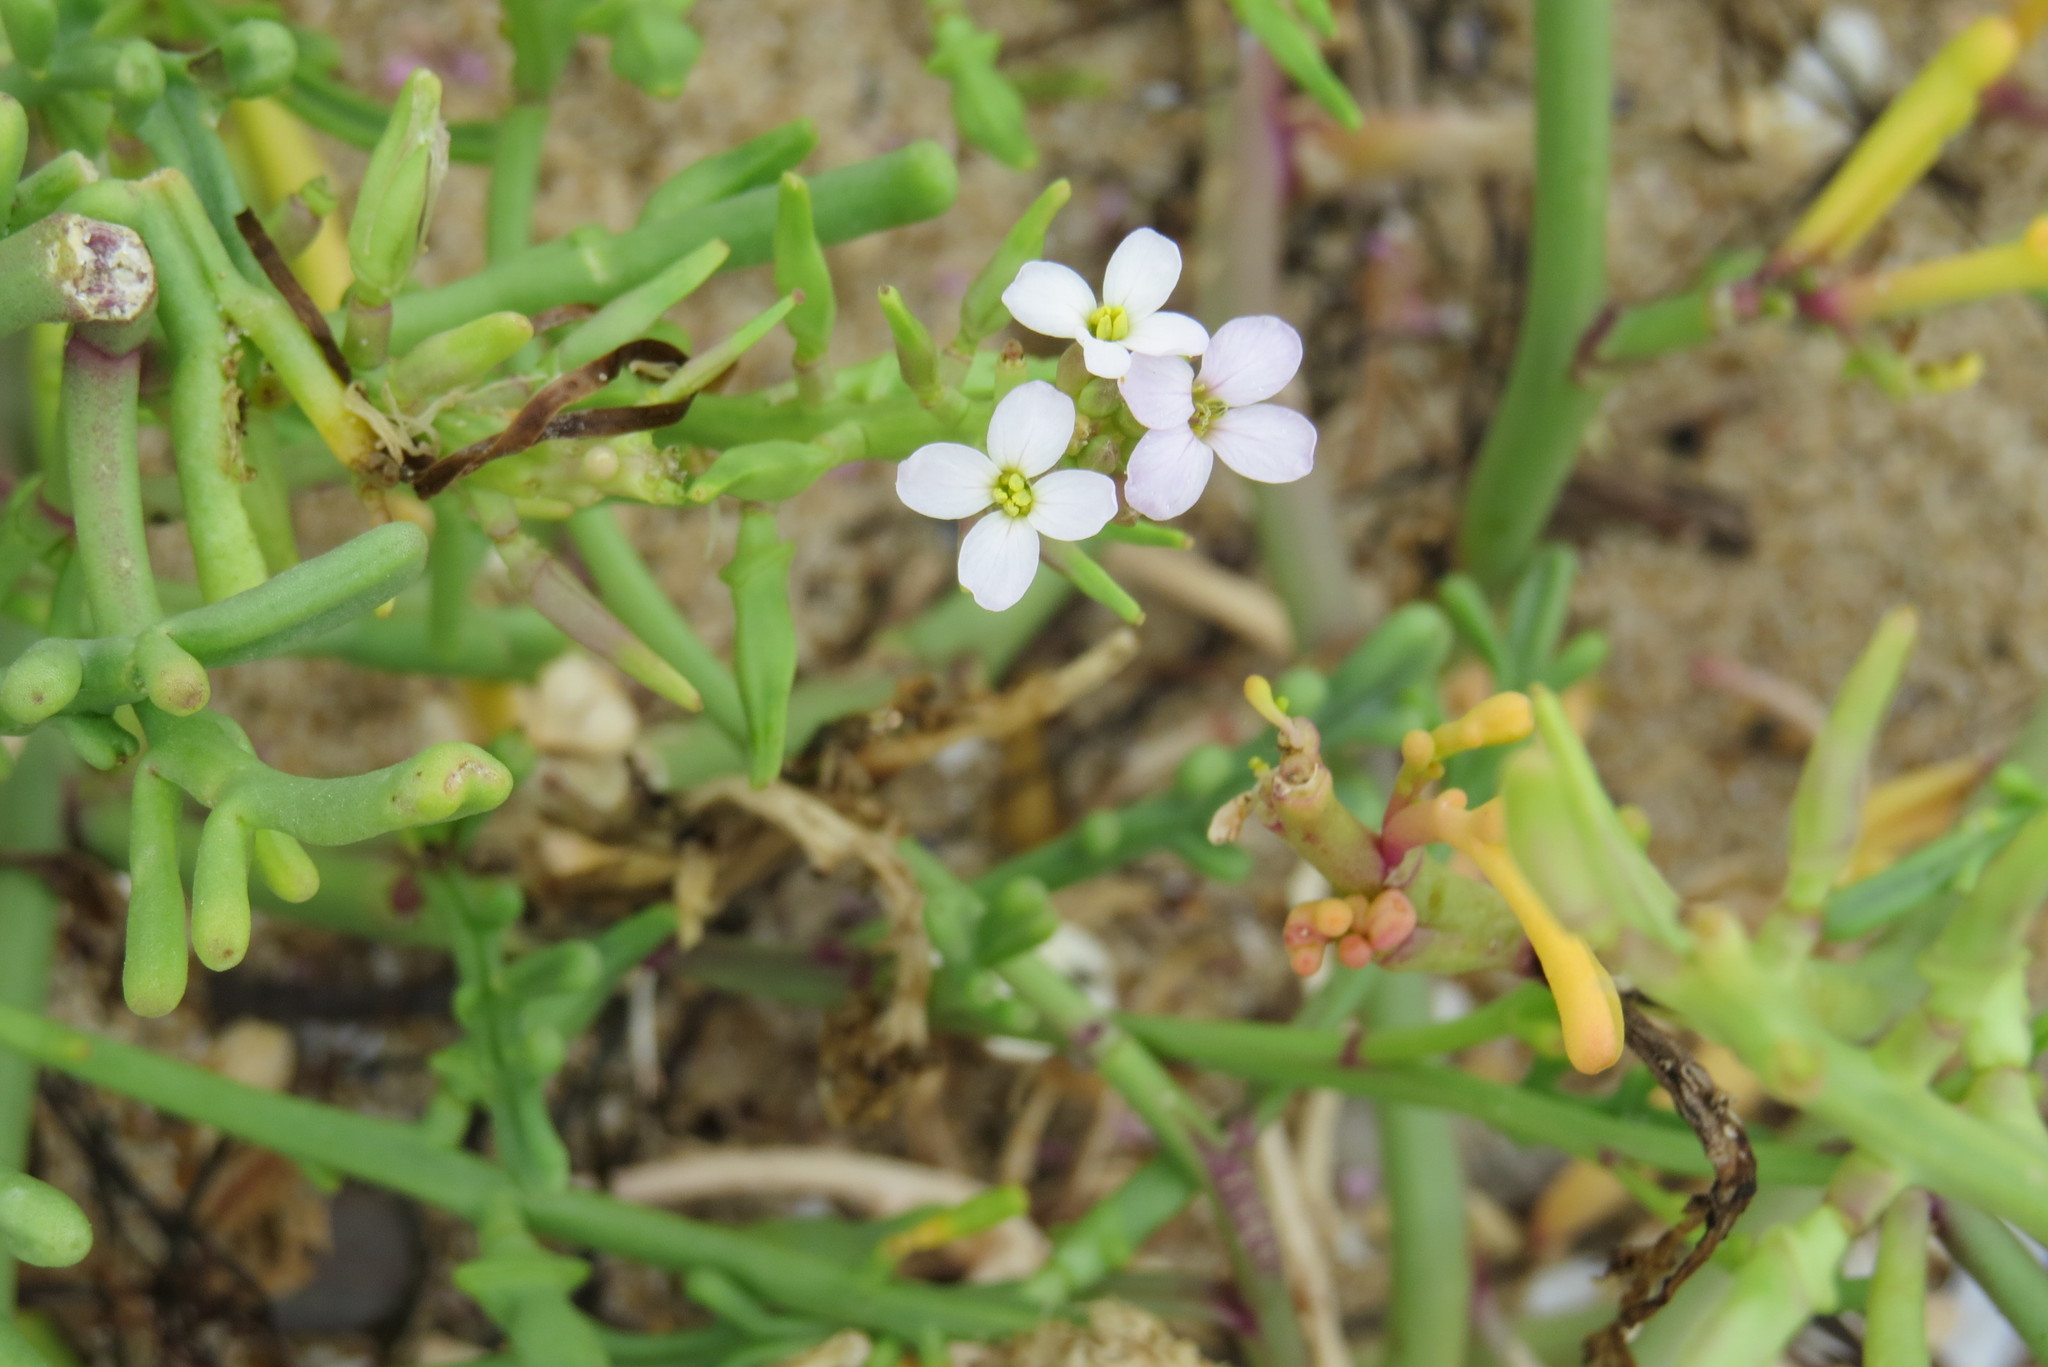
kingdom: Plantae
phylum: Tracheophyta
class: Magnoliopsida
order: Brassicales
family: Brassicaceae
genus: Cakile
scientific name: Cakile maritima
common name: Sea rocket
